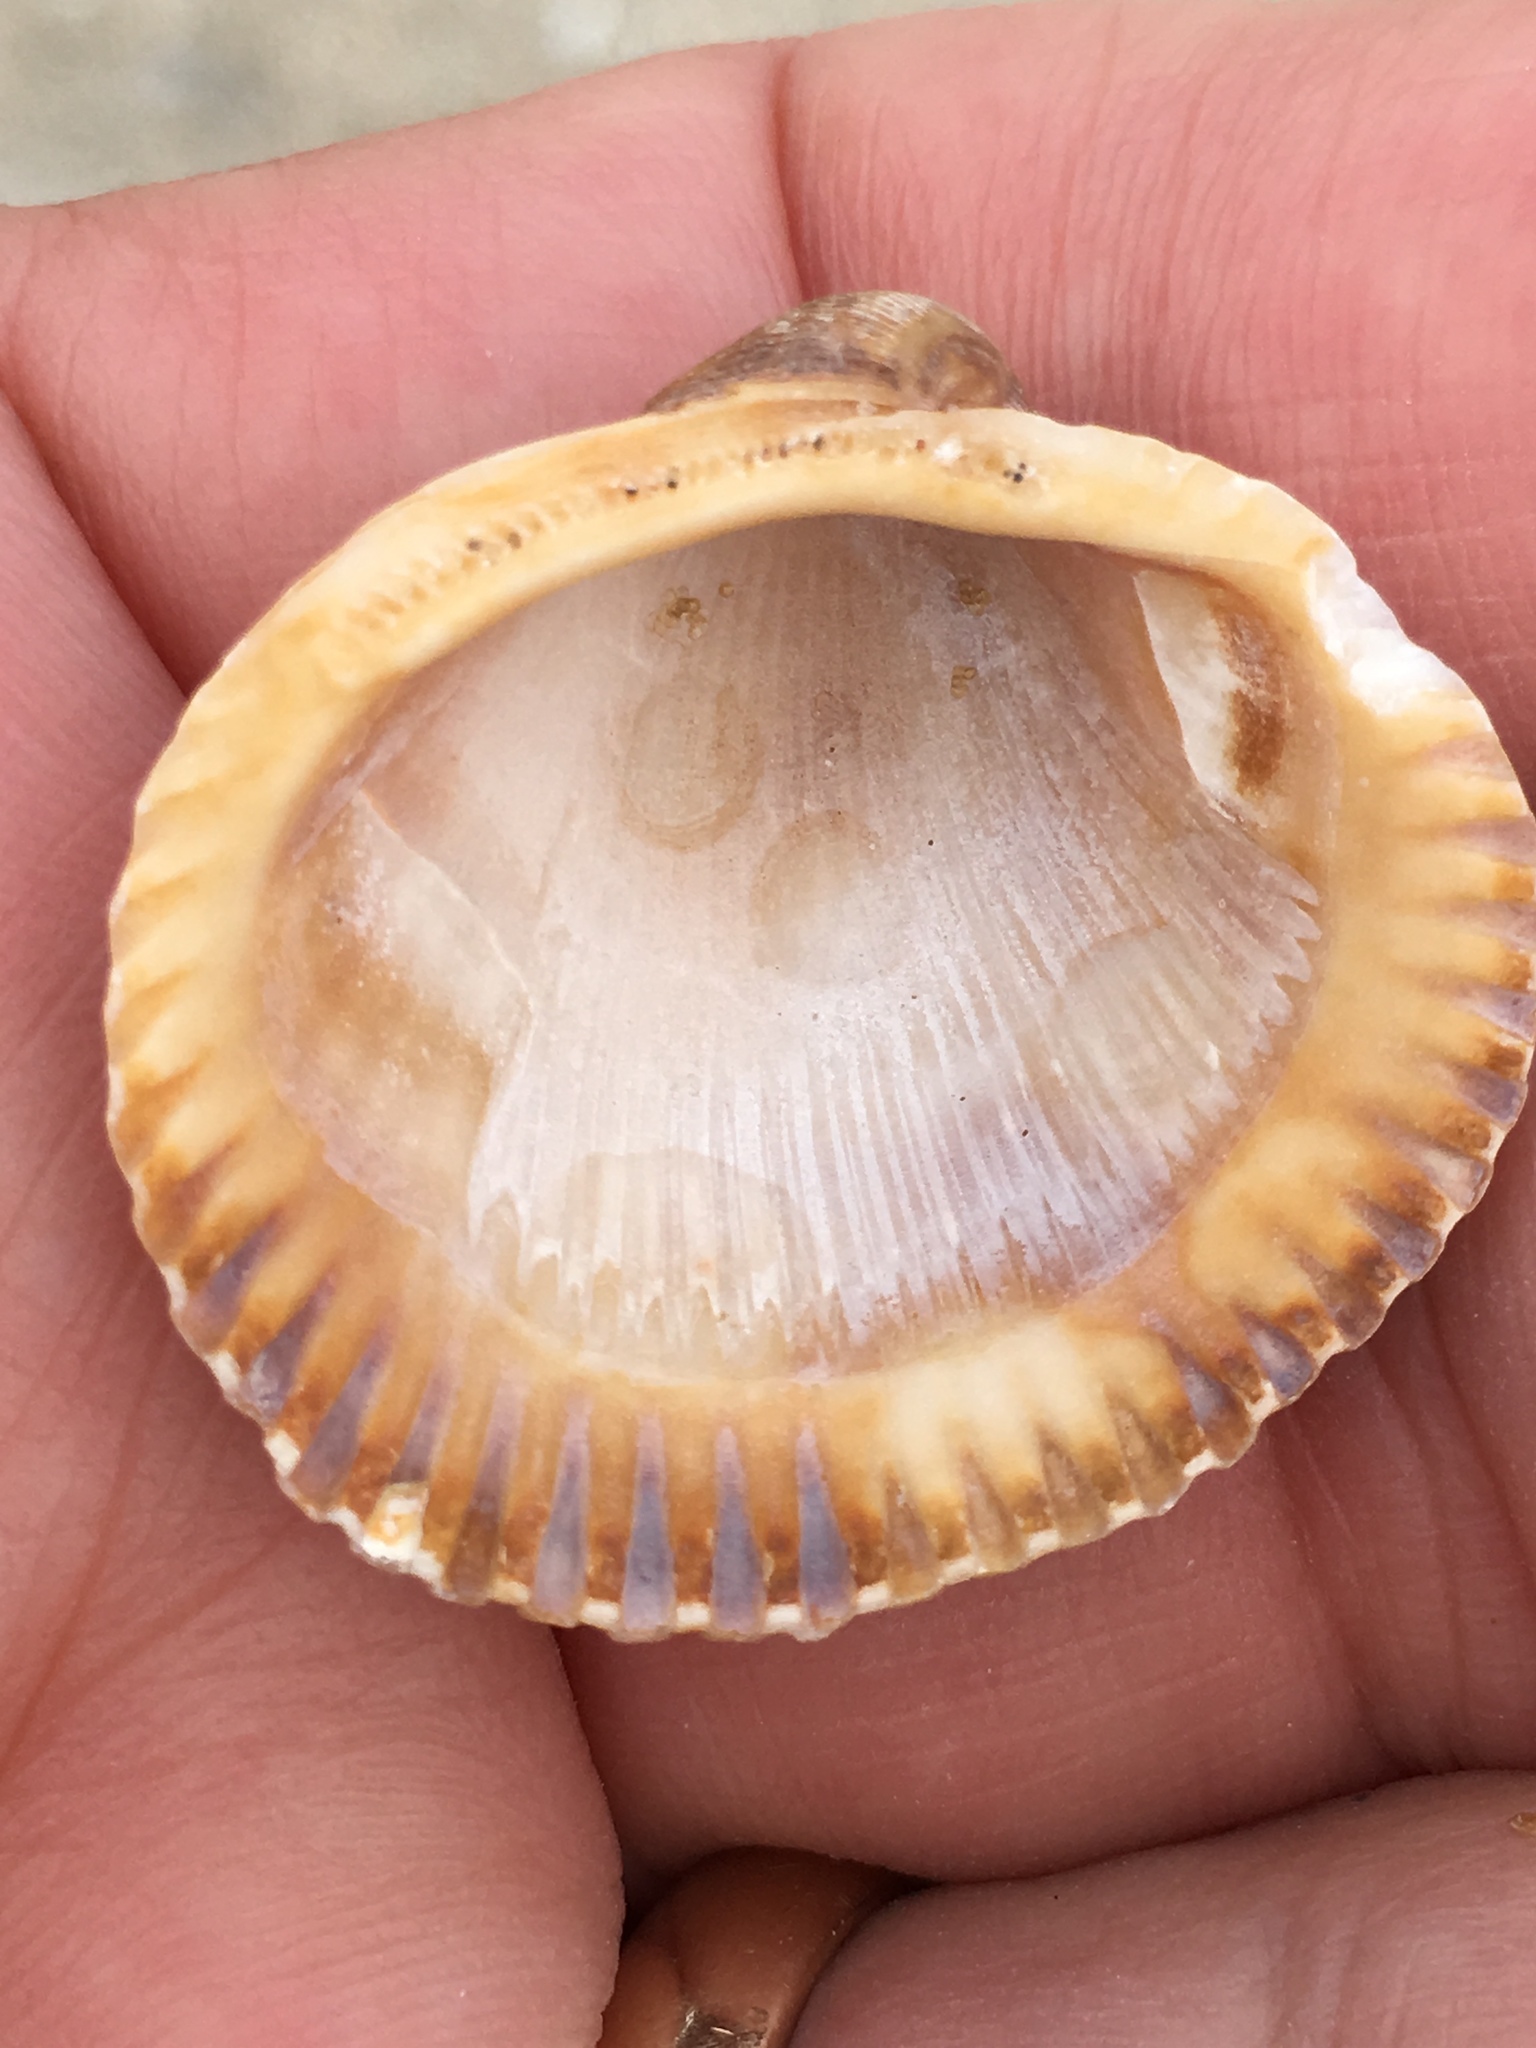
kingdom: Animalia
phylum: Mollusca
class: Bivalvia
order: Arcida
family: Arcidae
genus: Lunarca
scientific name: Lunarca ovalis
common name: Blood ark
